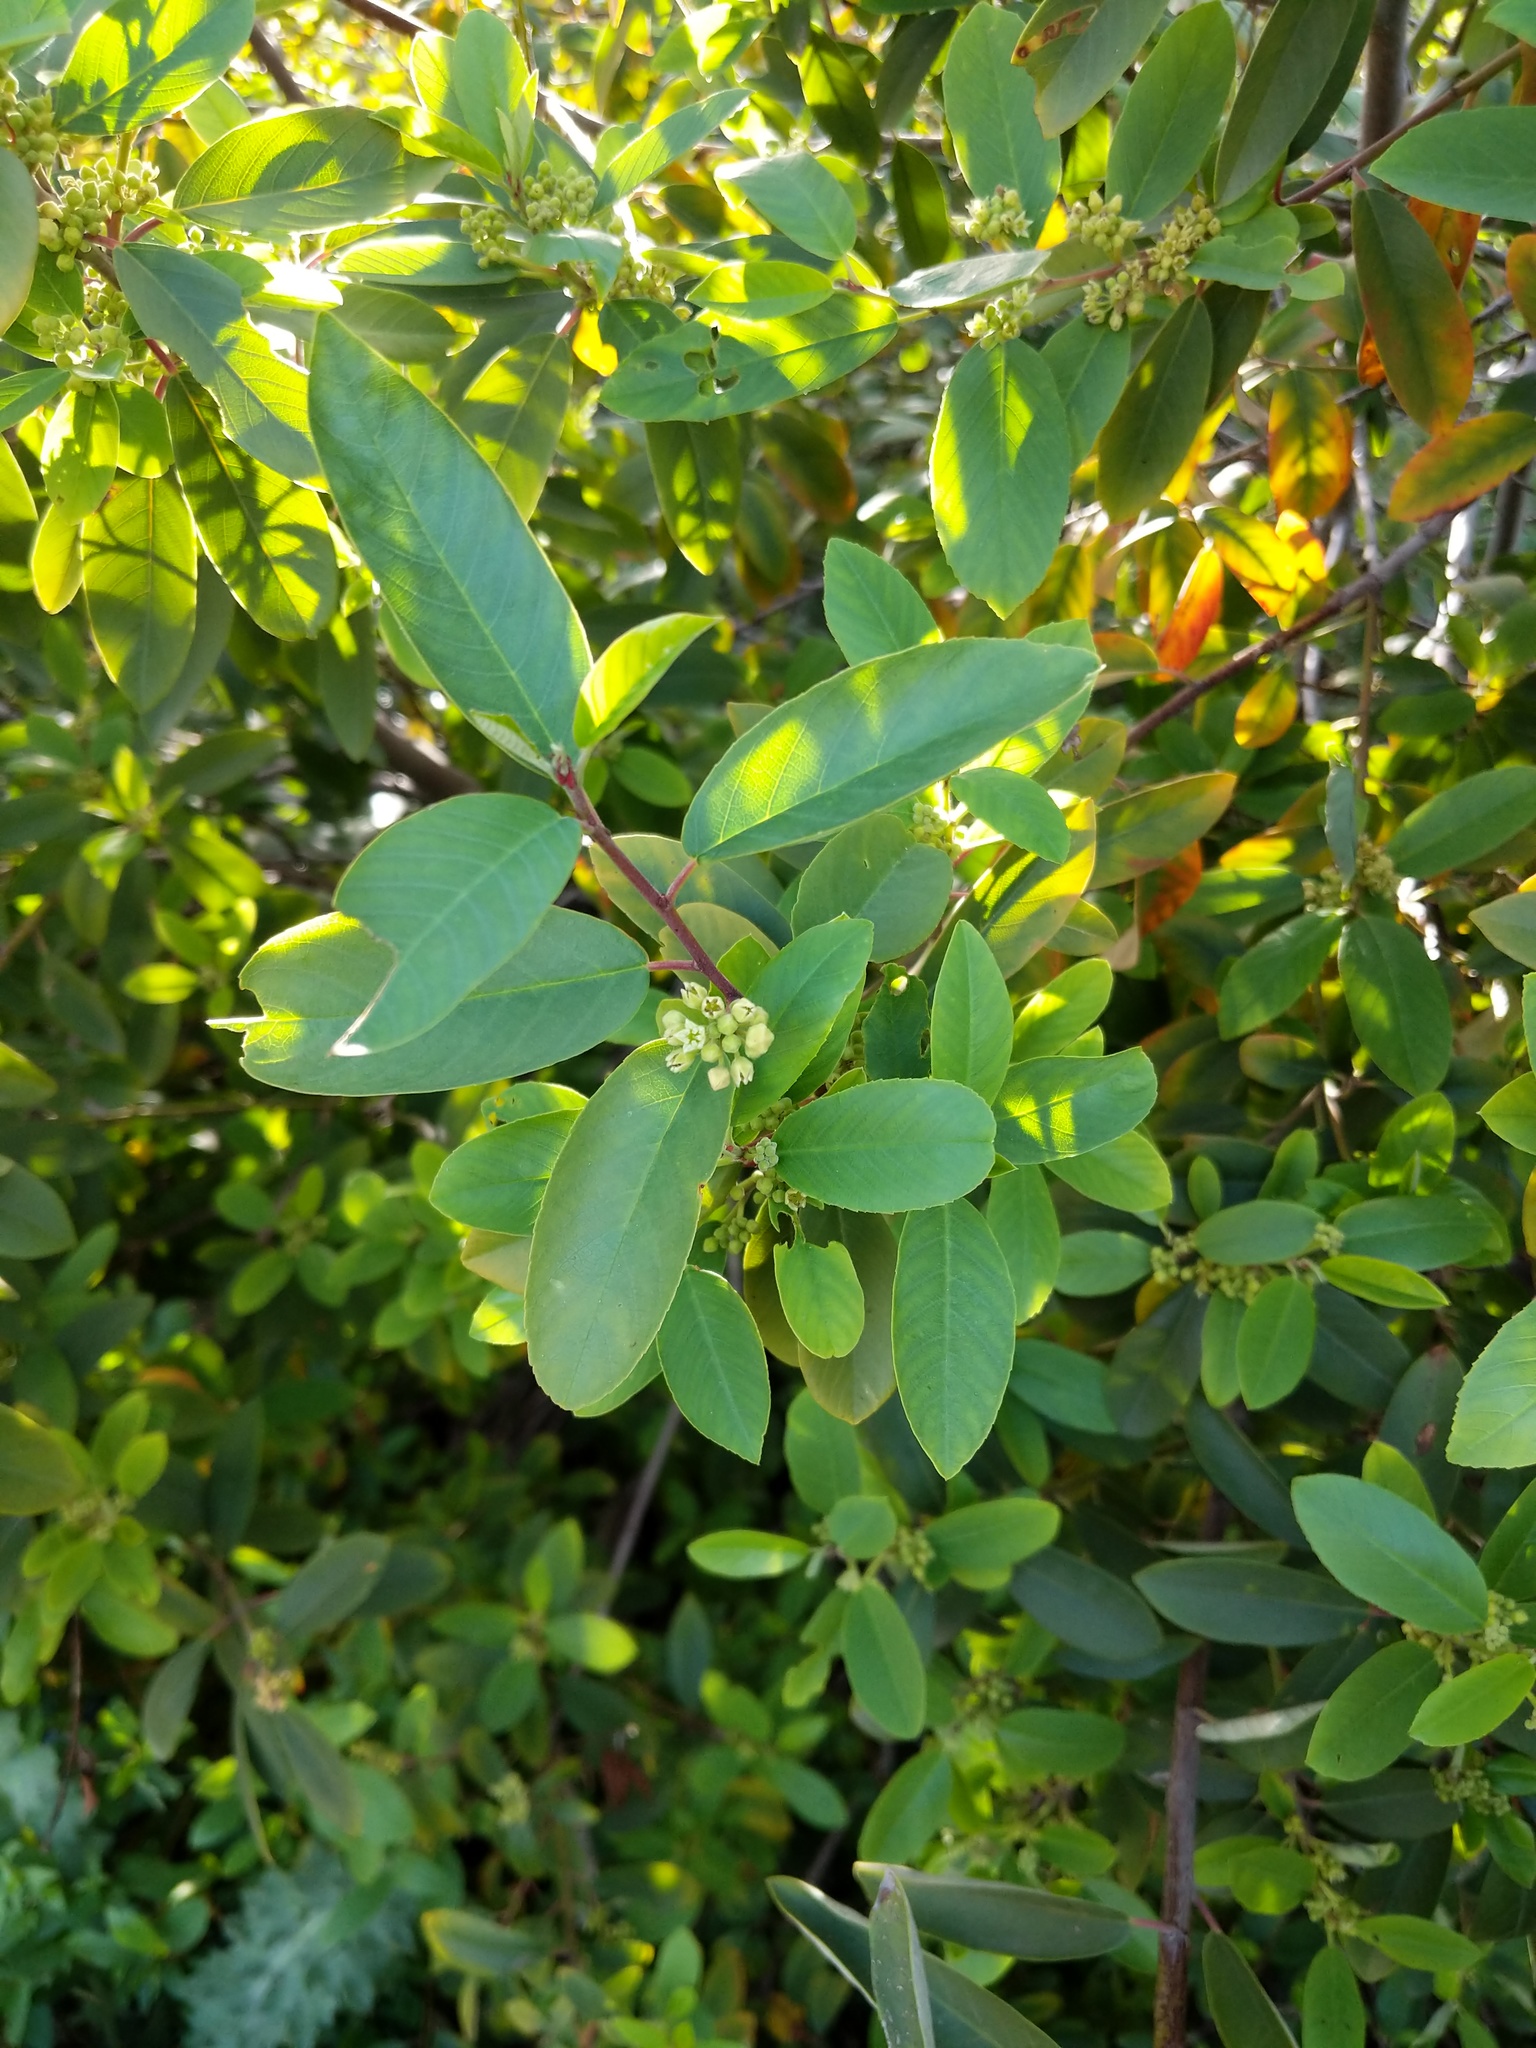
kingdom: Plantae
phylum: Tracheophyta
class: Magnoliopsida
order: Rosales
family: Rhamnaceae
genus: Frangula
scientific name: Frangula californica
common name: California buckthorn
